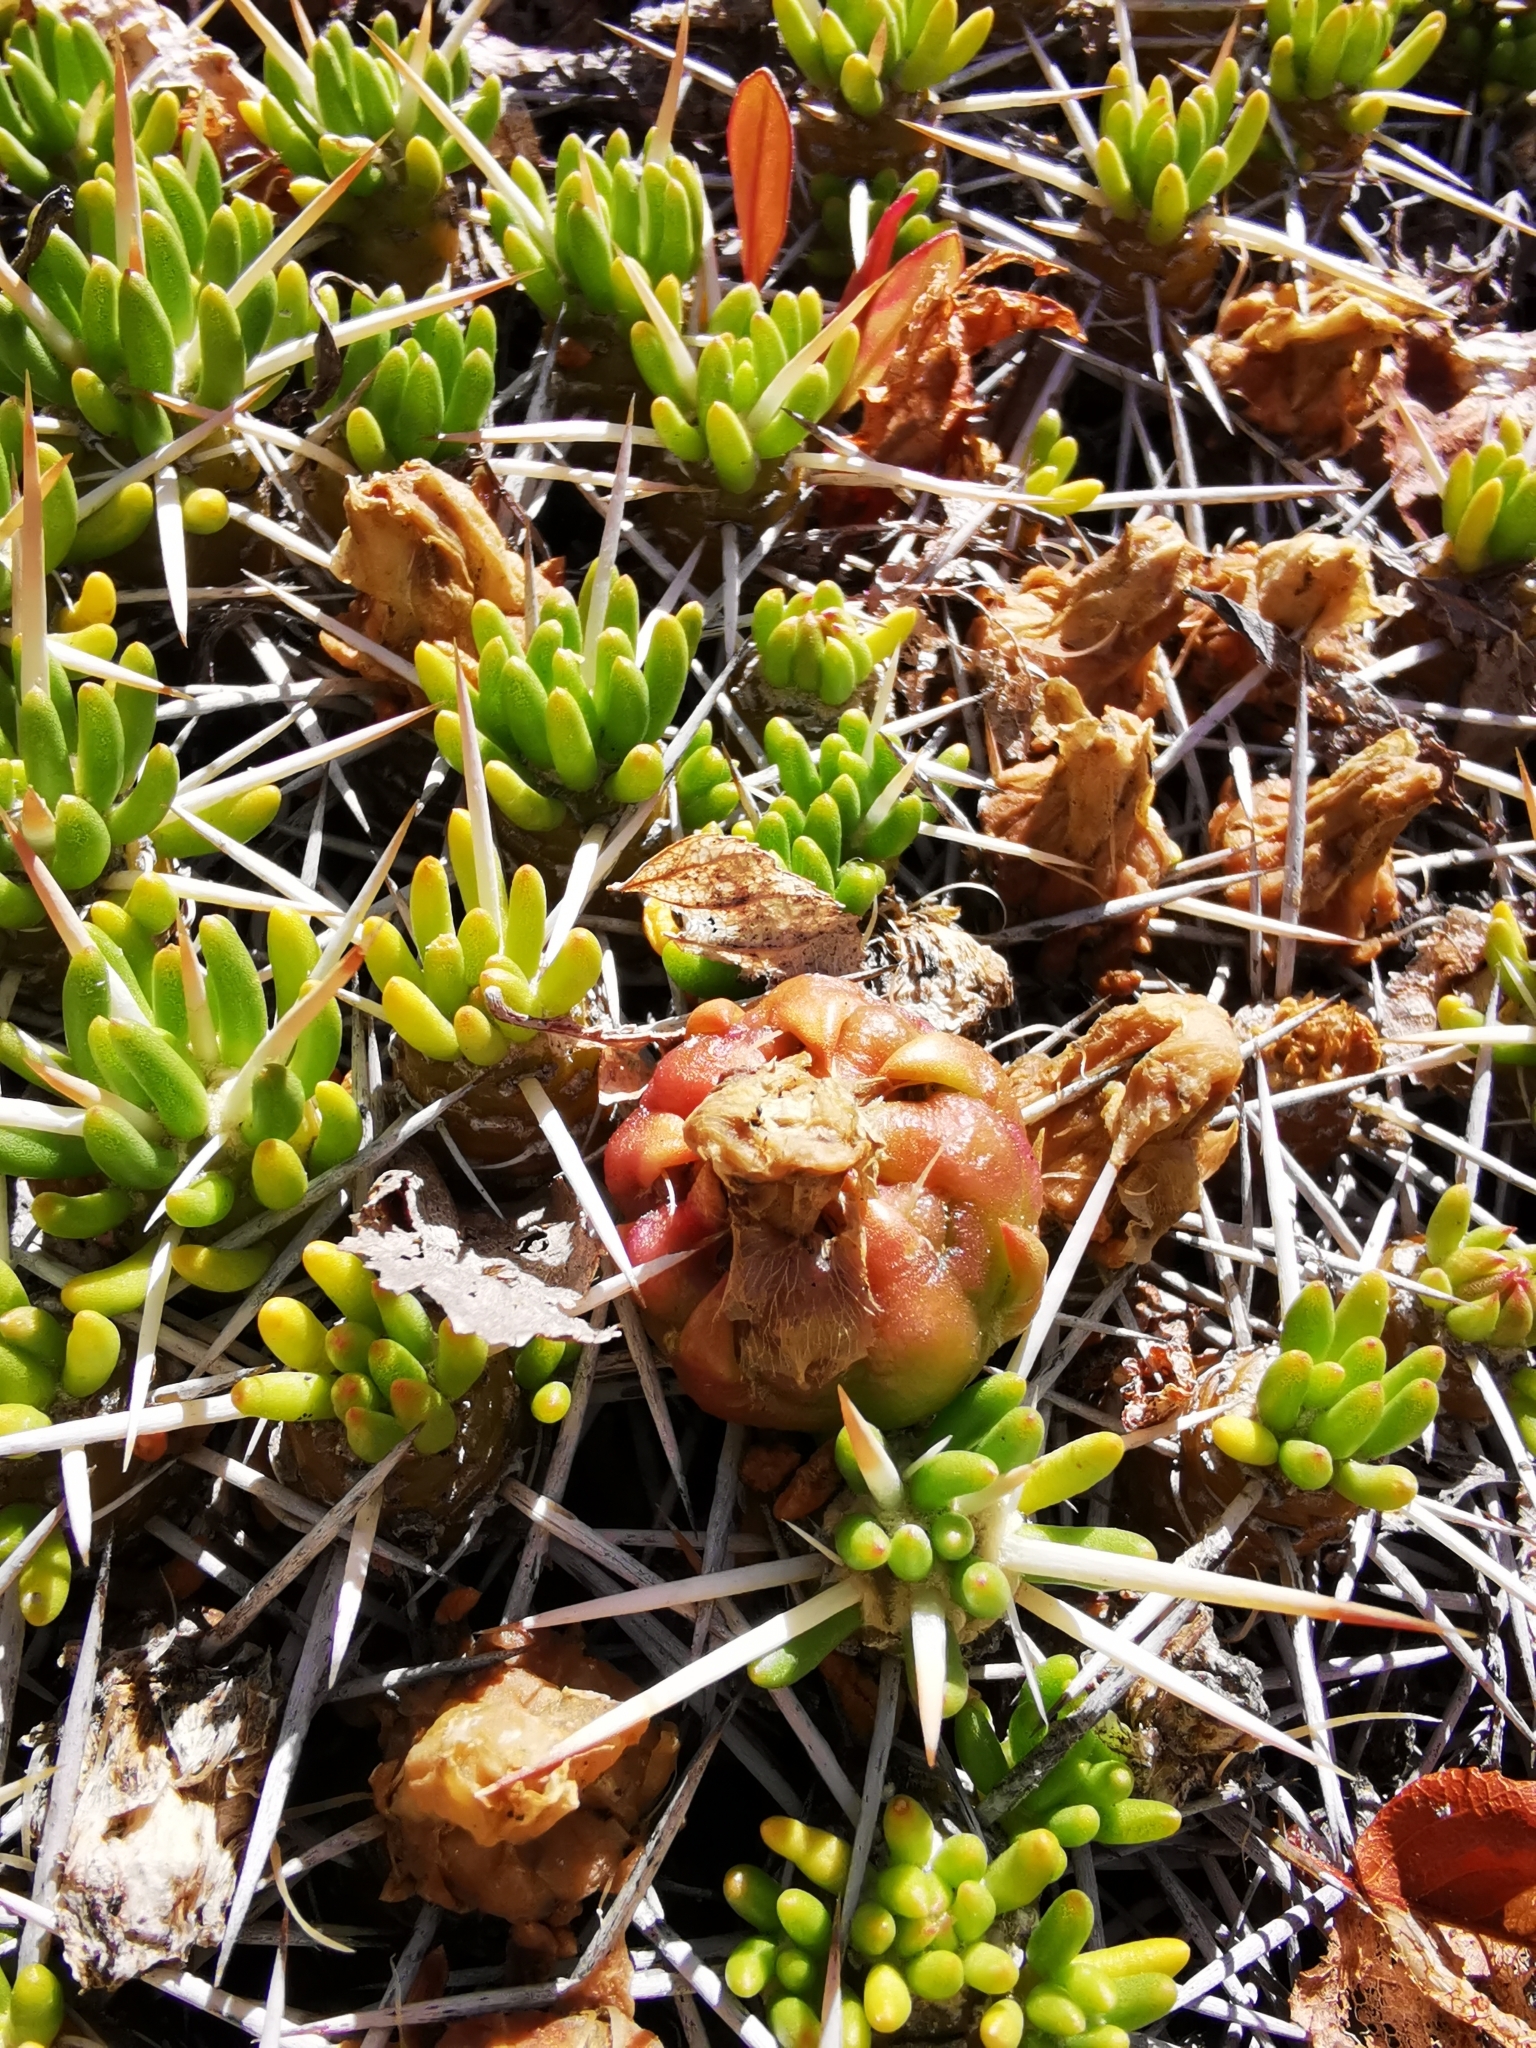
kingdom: Plantae
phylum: Tracheophyta
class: Magnoliopsida
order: Caryophyllales
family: Cactaceae
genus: Maihuenia
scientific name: Maihuenia poeppigii
